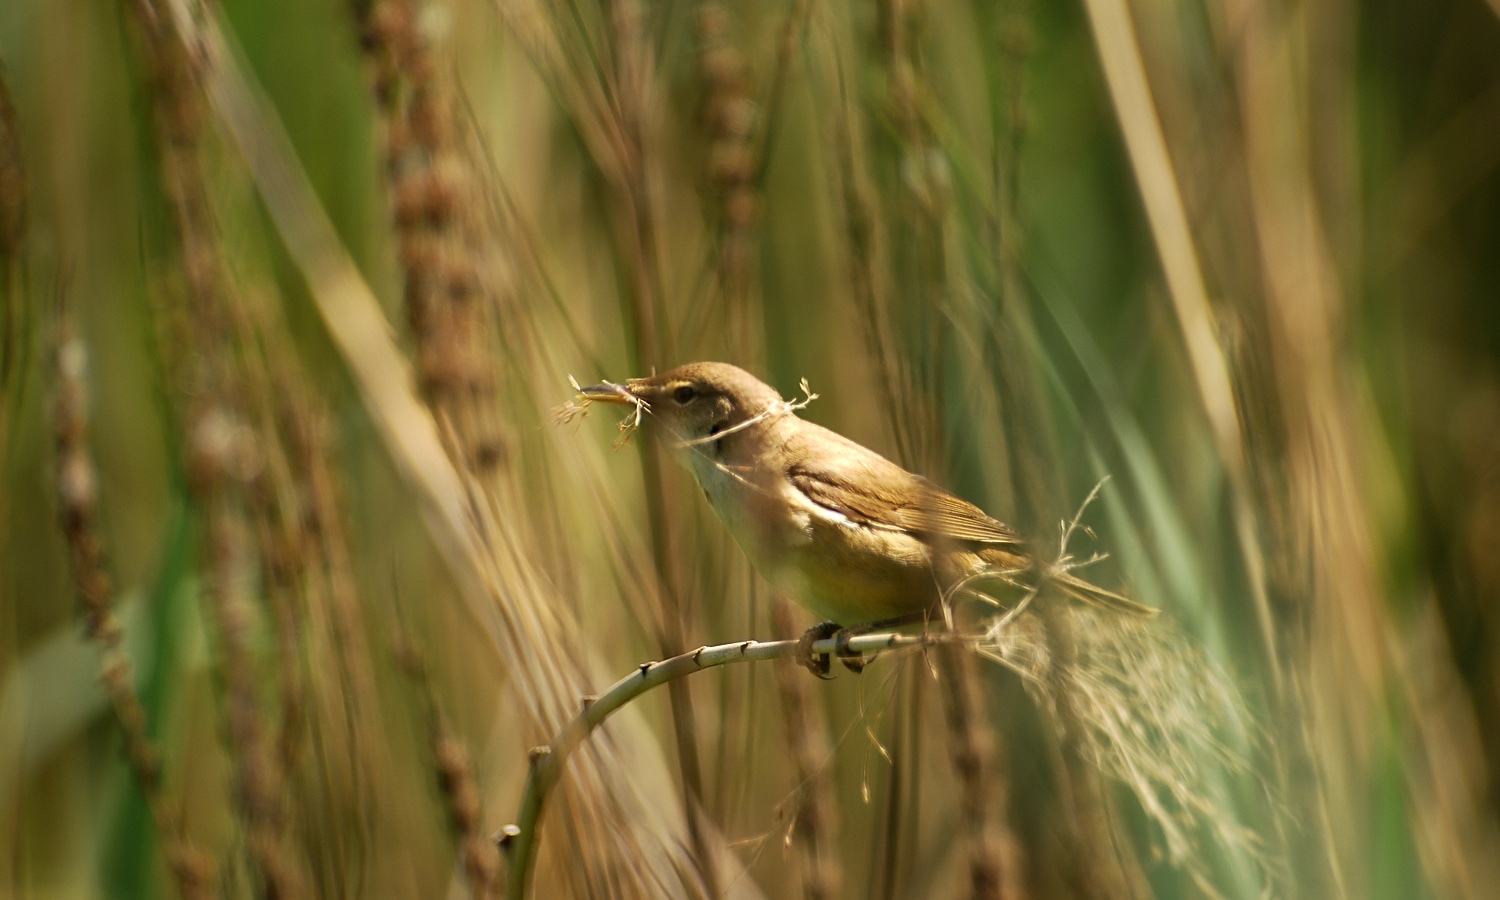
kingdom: Animalia
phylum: Chordata
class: Aves
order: Passeriformes
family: Acrocephalidae
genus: Acrocephalus
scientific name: Acrocephalus scirpaceus
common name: Eurasian reed warbler
